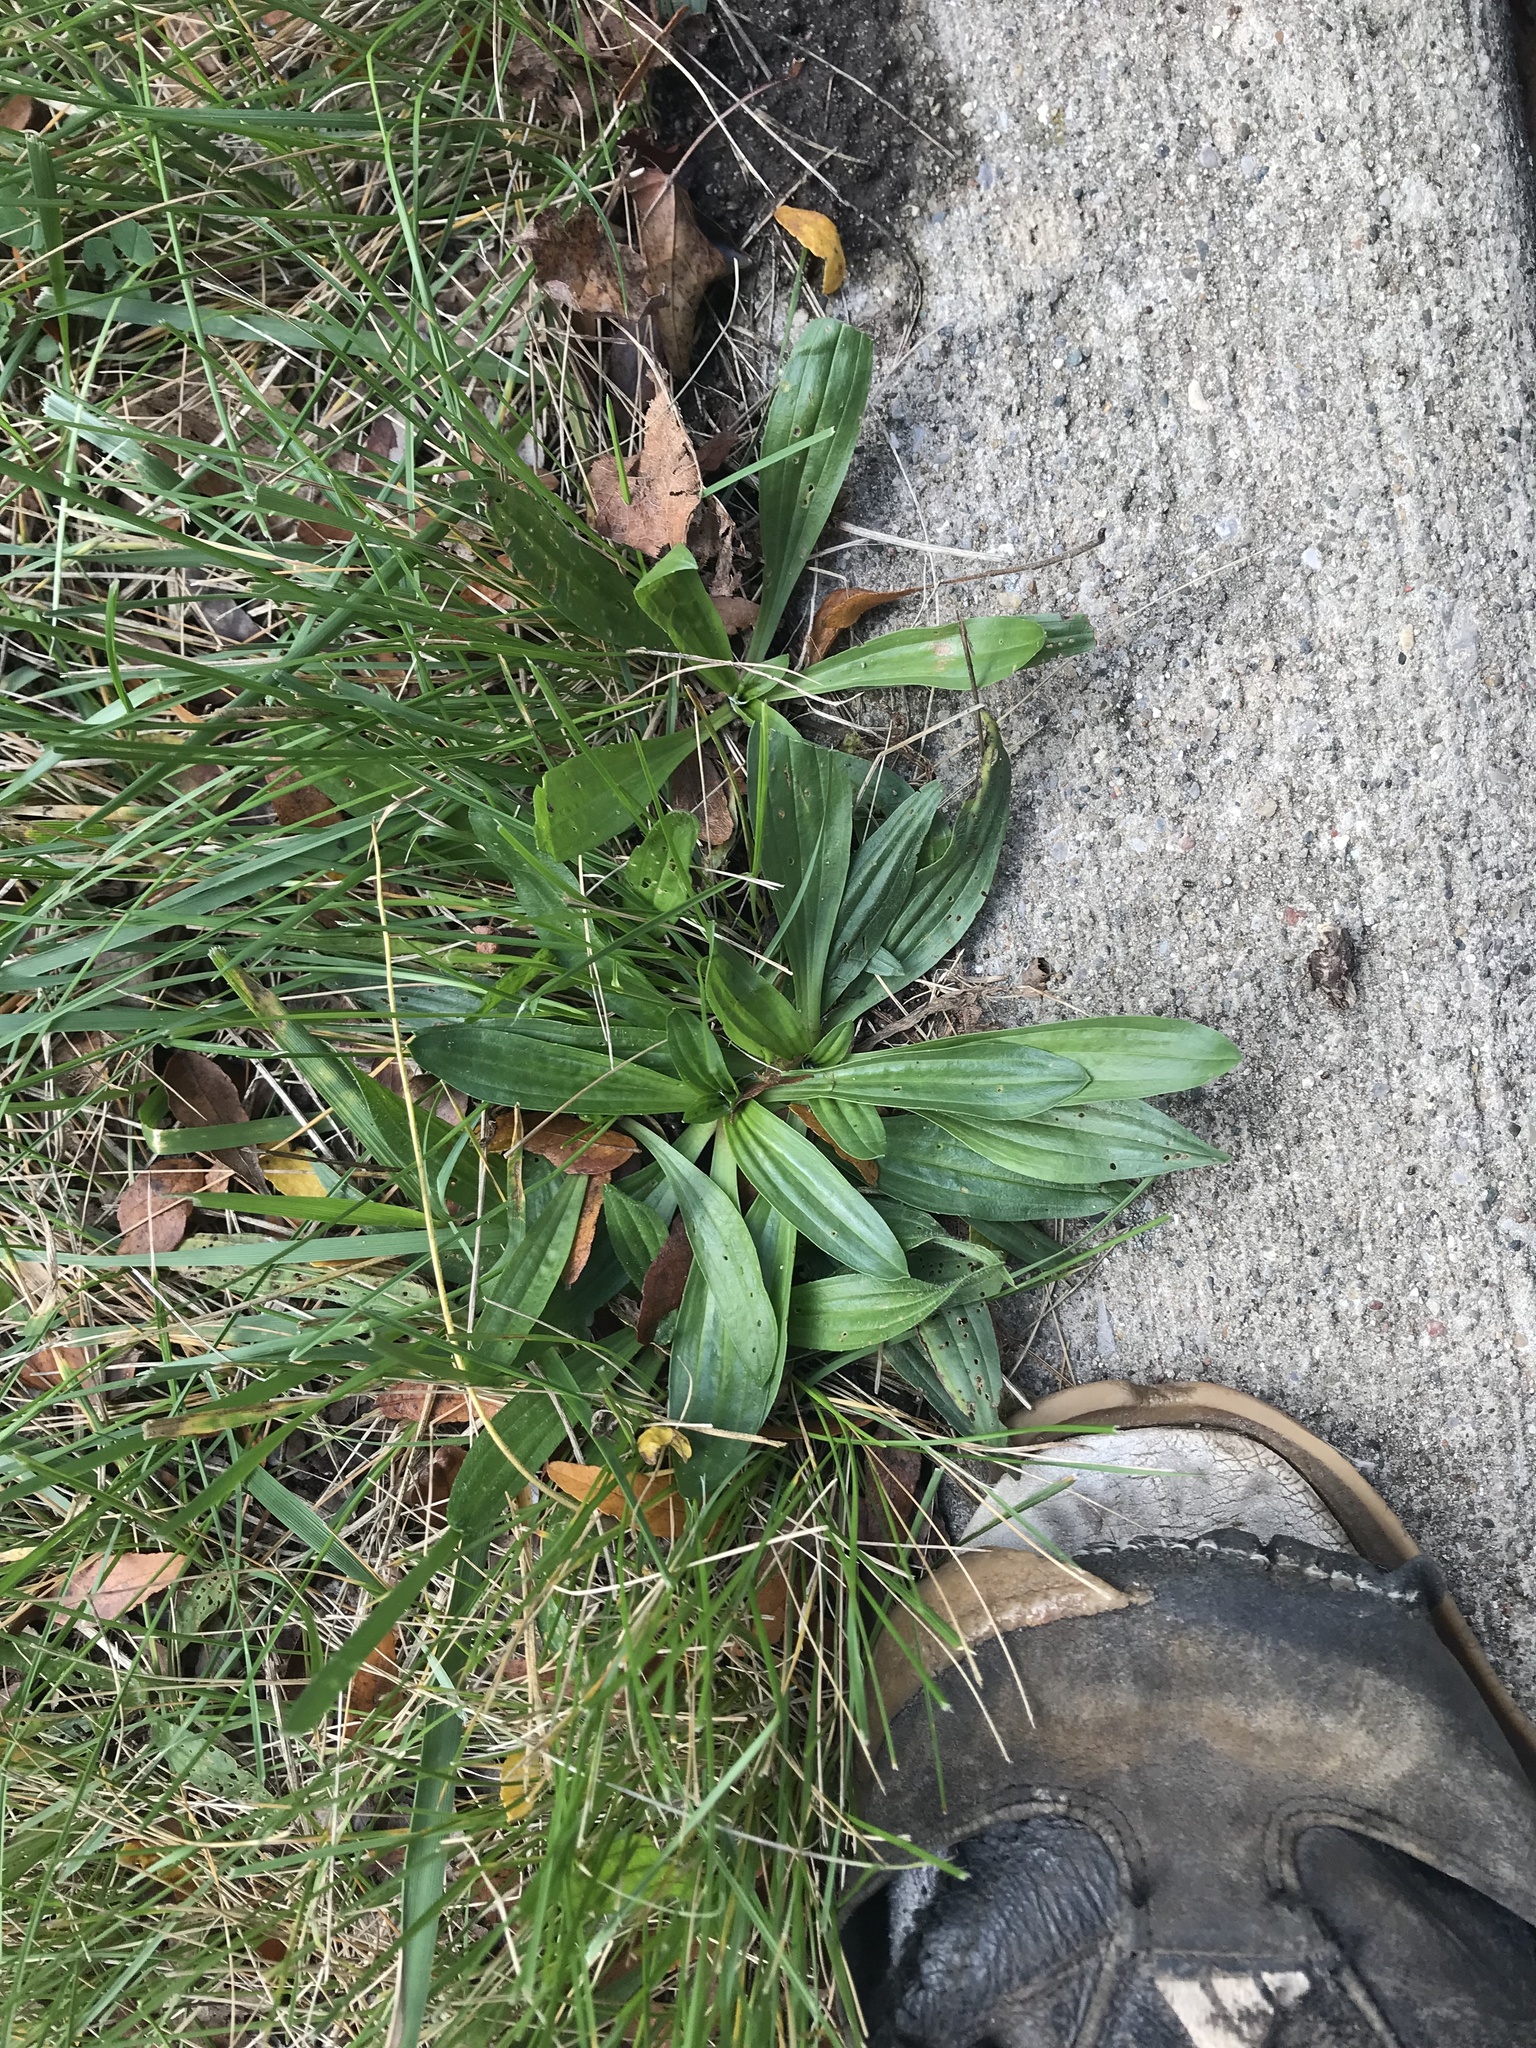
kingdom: Plantae
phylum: Tracheophyta
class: Magnoliopsida
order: Lamiales
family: Plantaginaceae
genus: Plantago
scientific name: Plantago lanceolata
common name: Ribwort plantain
